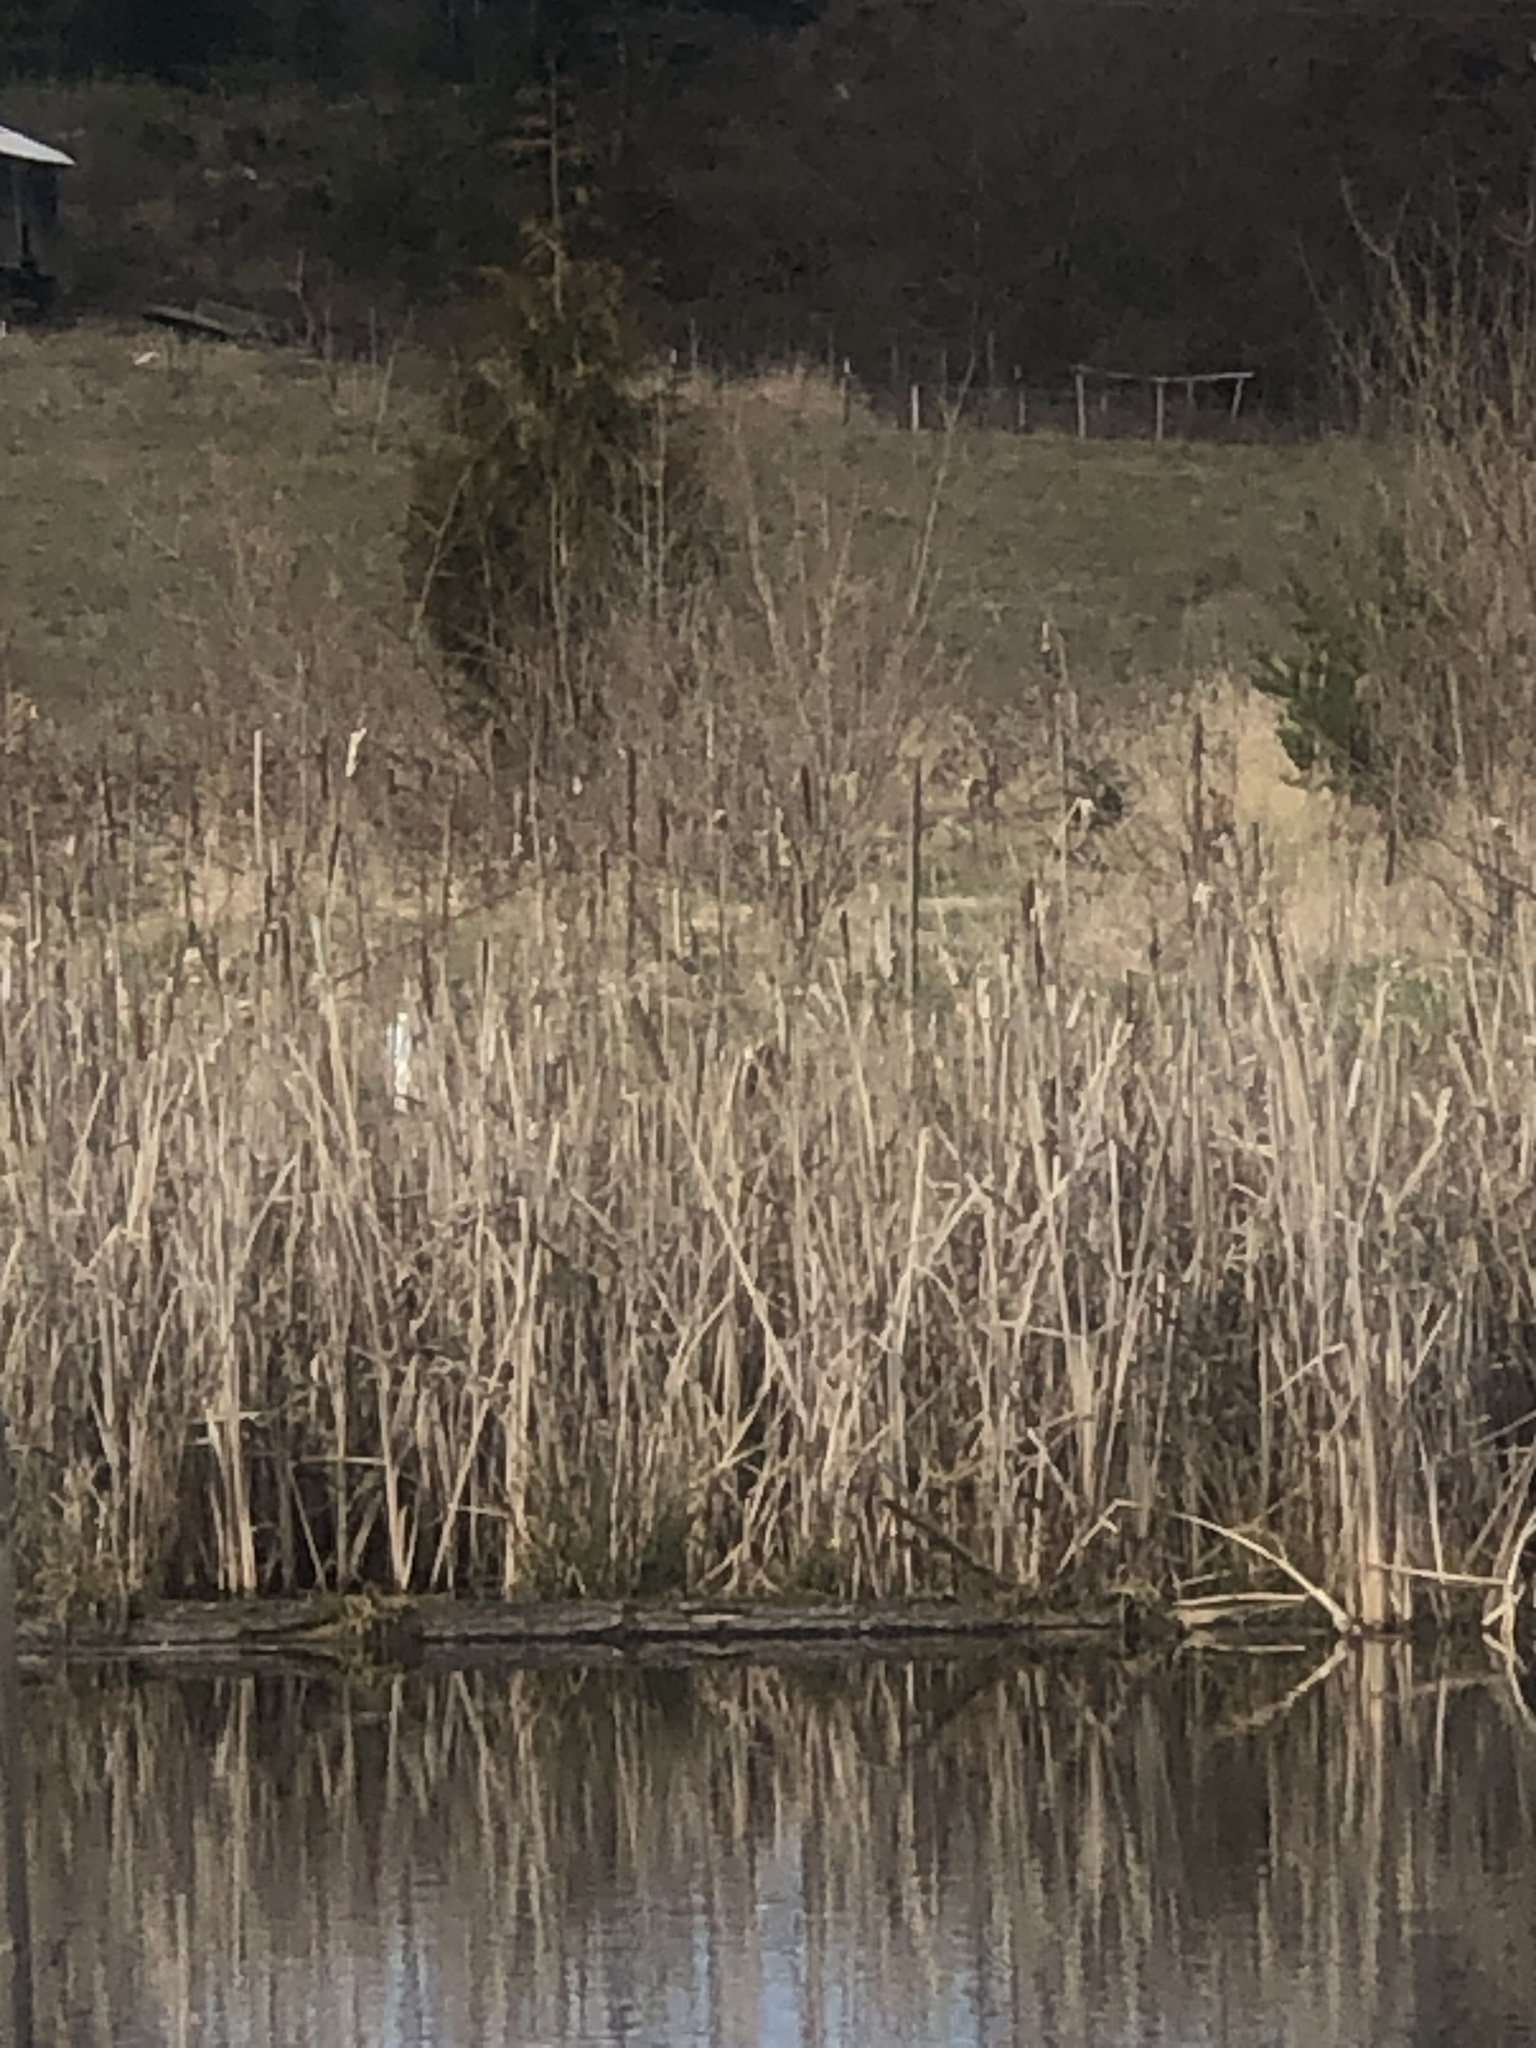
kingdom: Animalia
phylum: Chordata
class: Aves
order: Passeriformes
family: Icteridae
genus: Agelaius
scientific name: Agelaius phoeniceus
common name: Red-winged blackbird
